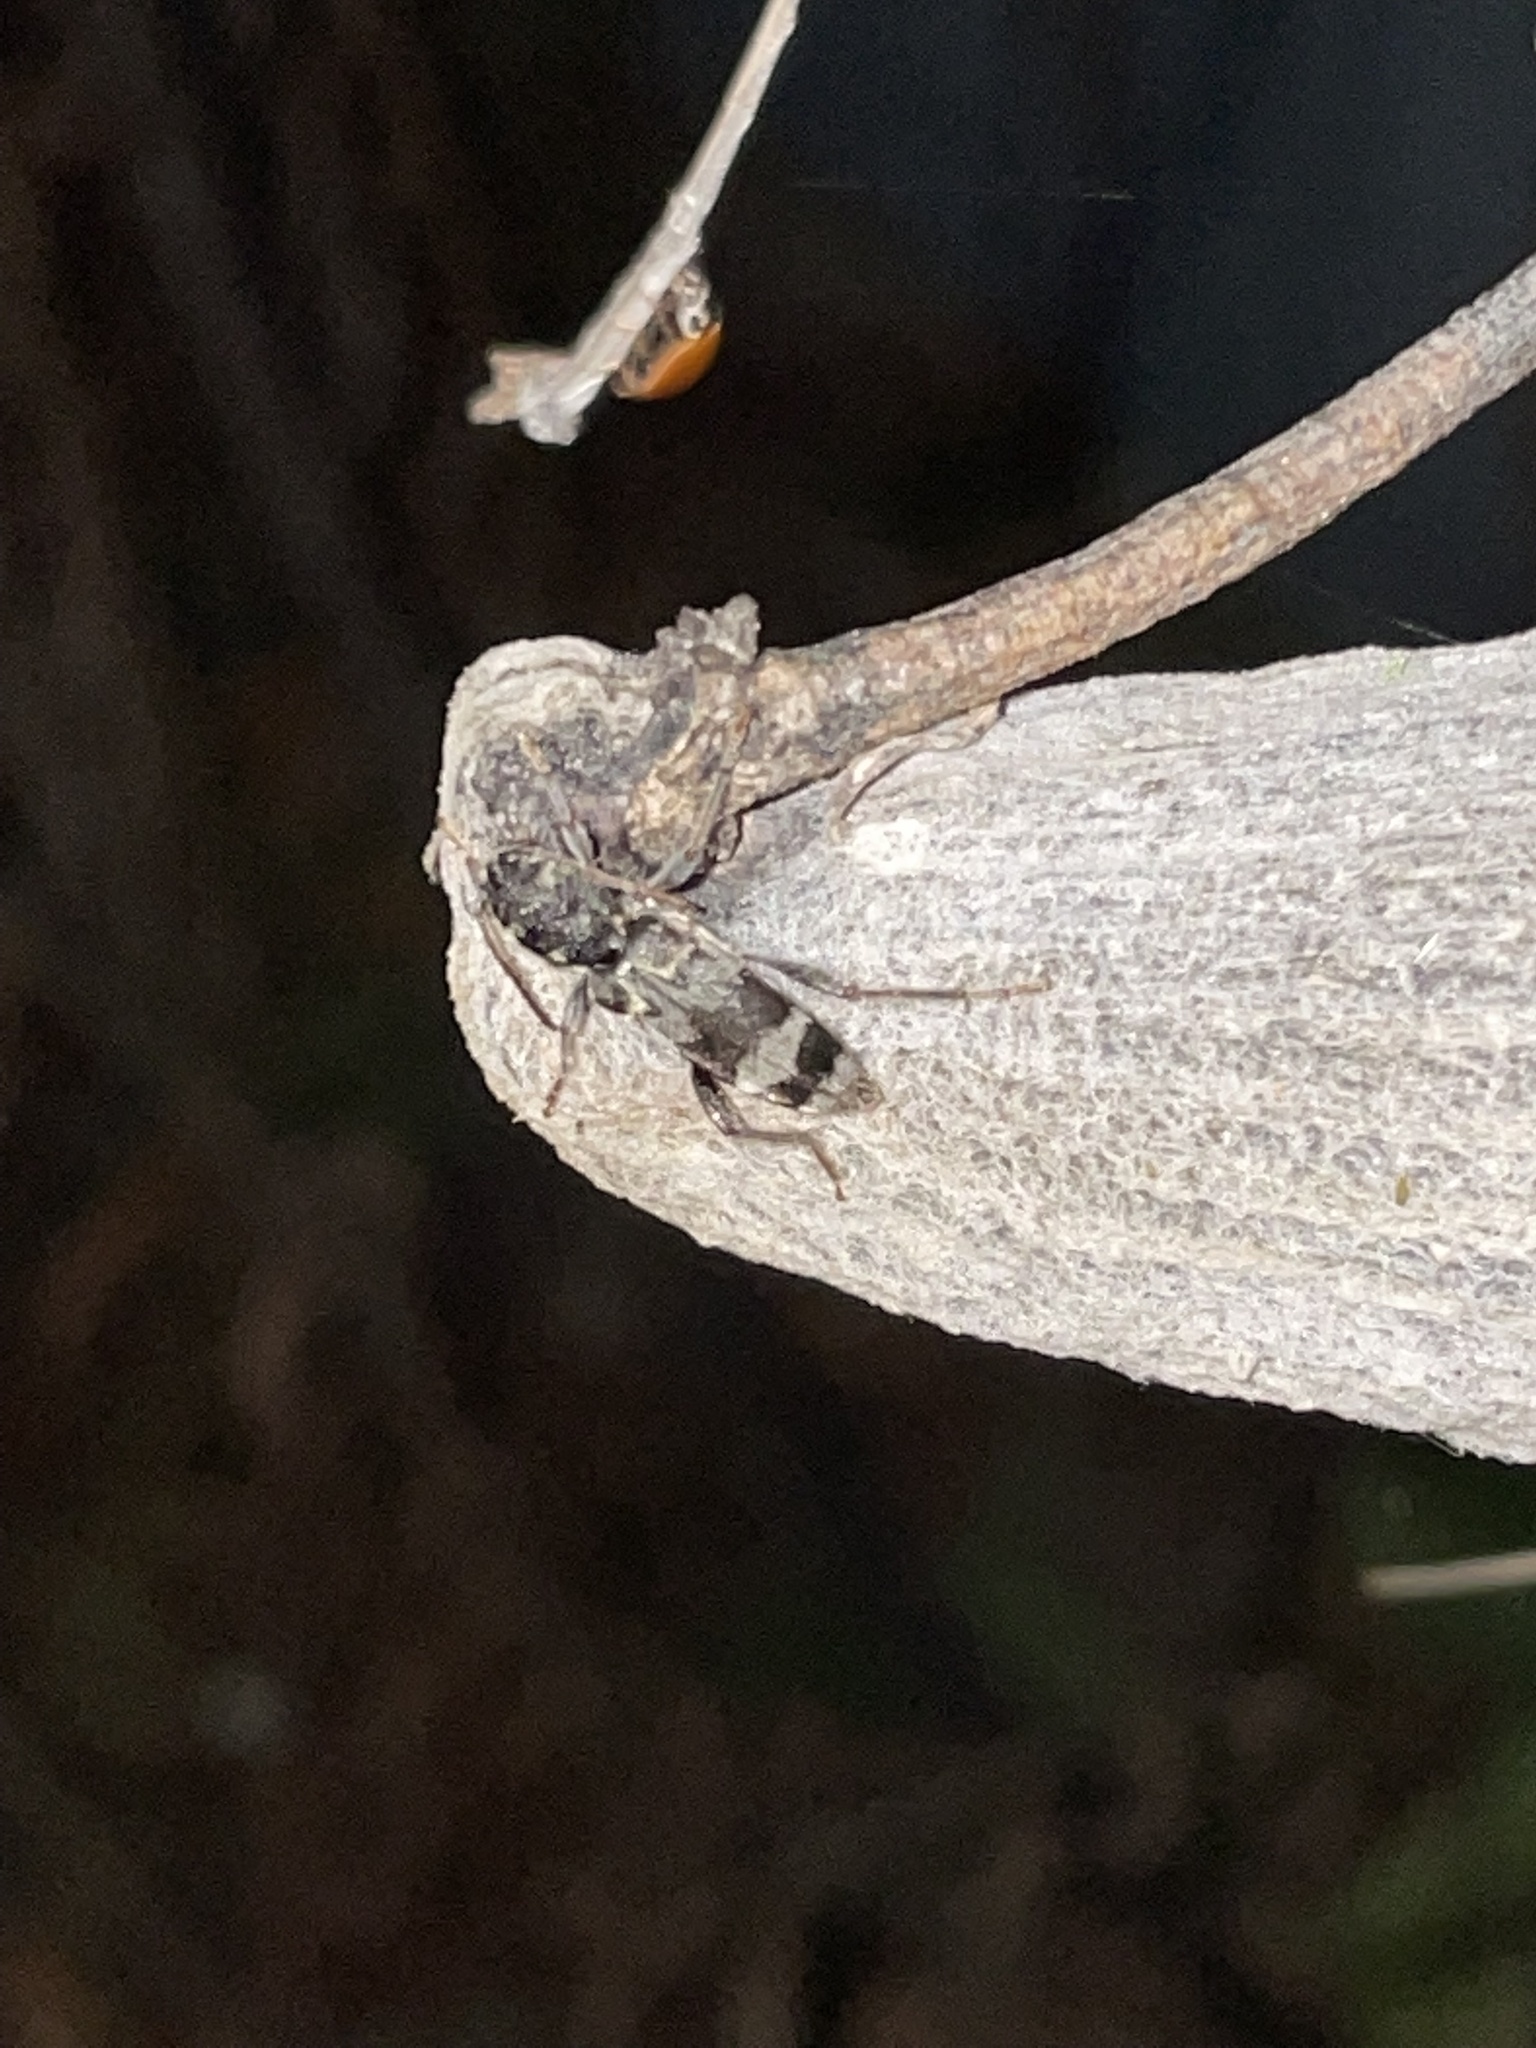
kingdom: Animalia
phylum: Arthropoda
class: Insecta
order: Coleoptera
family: Cerambycidae
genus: Xylotrechus
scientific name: Xylotrechus colonus
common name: Long-horned beetle
